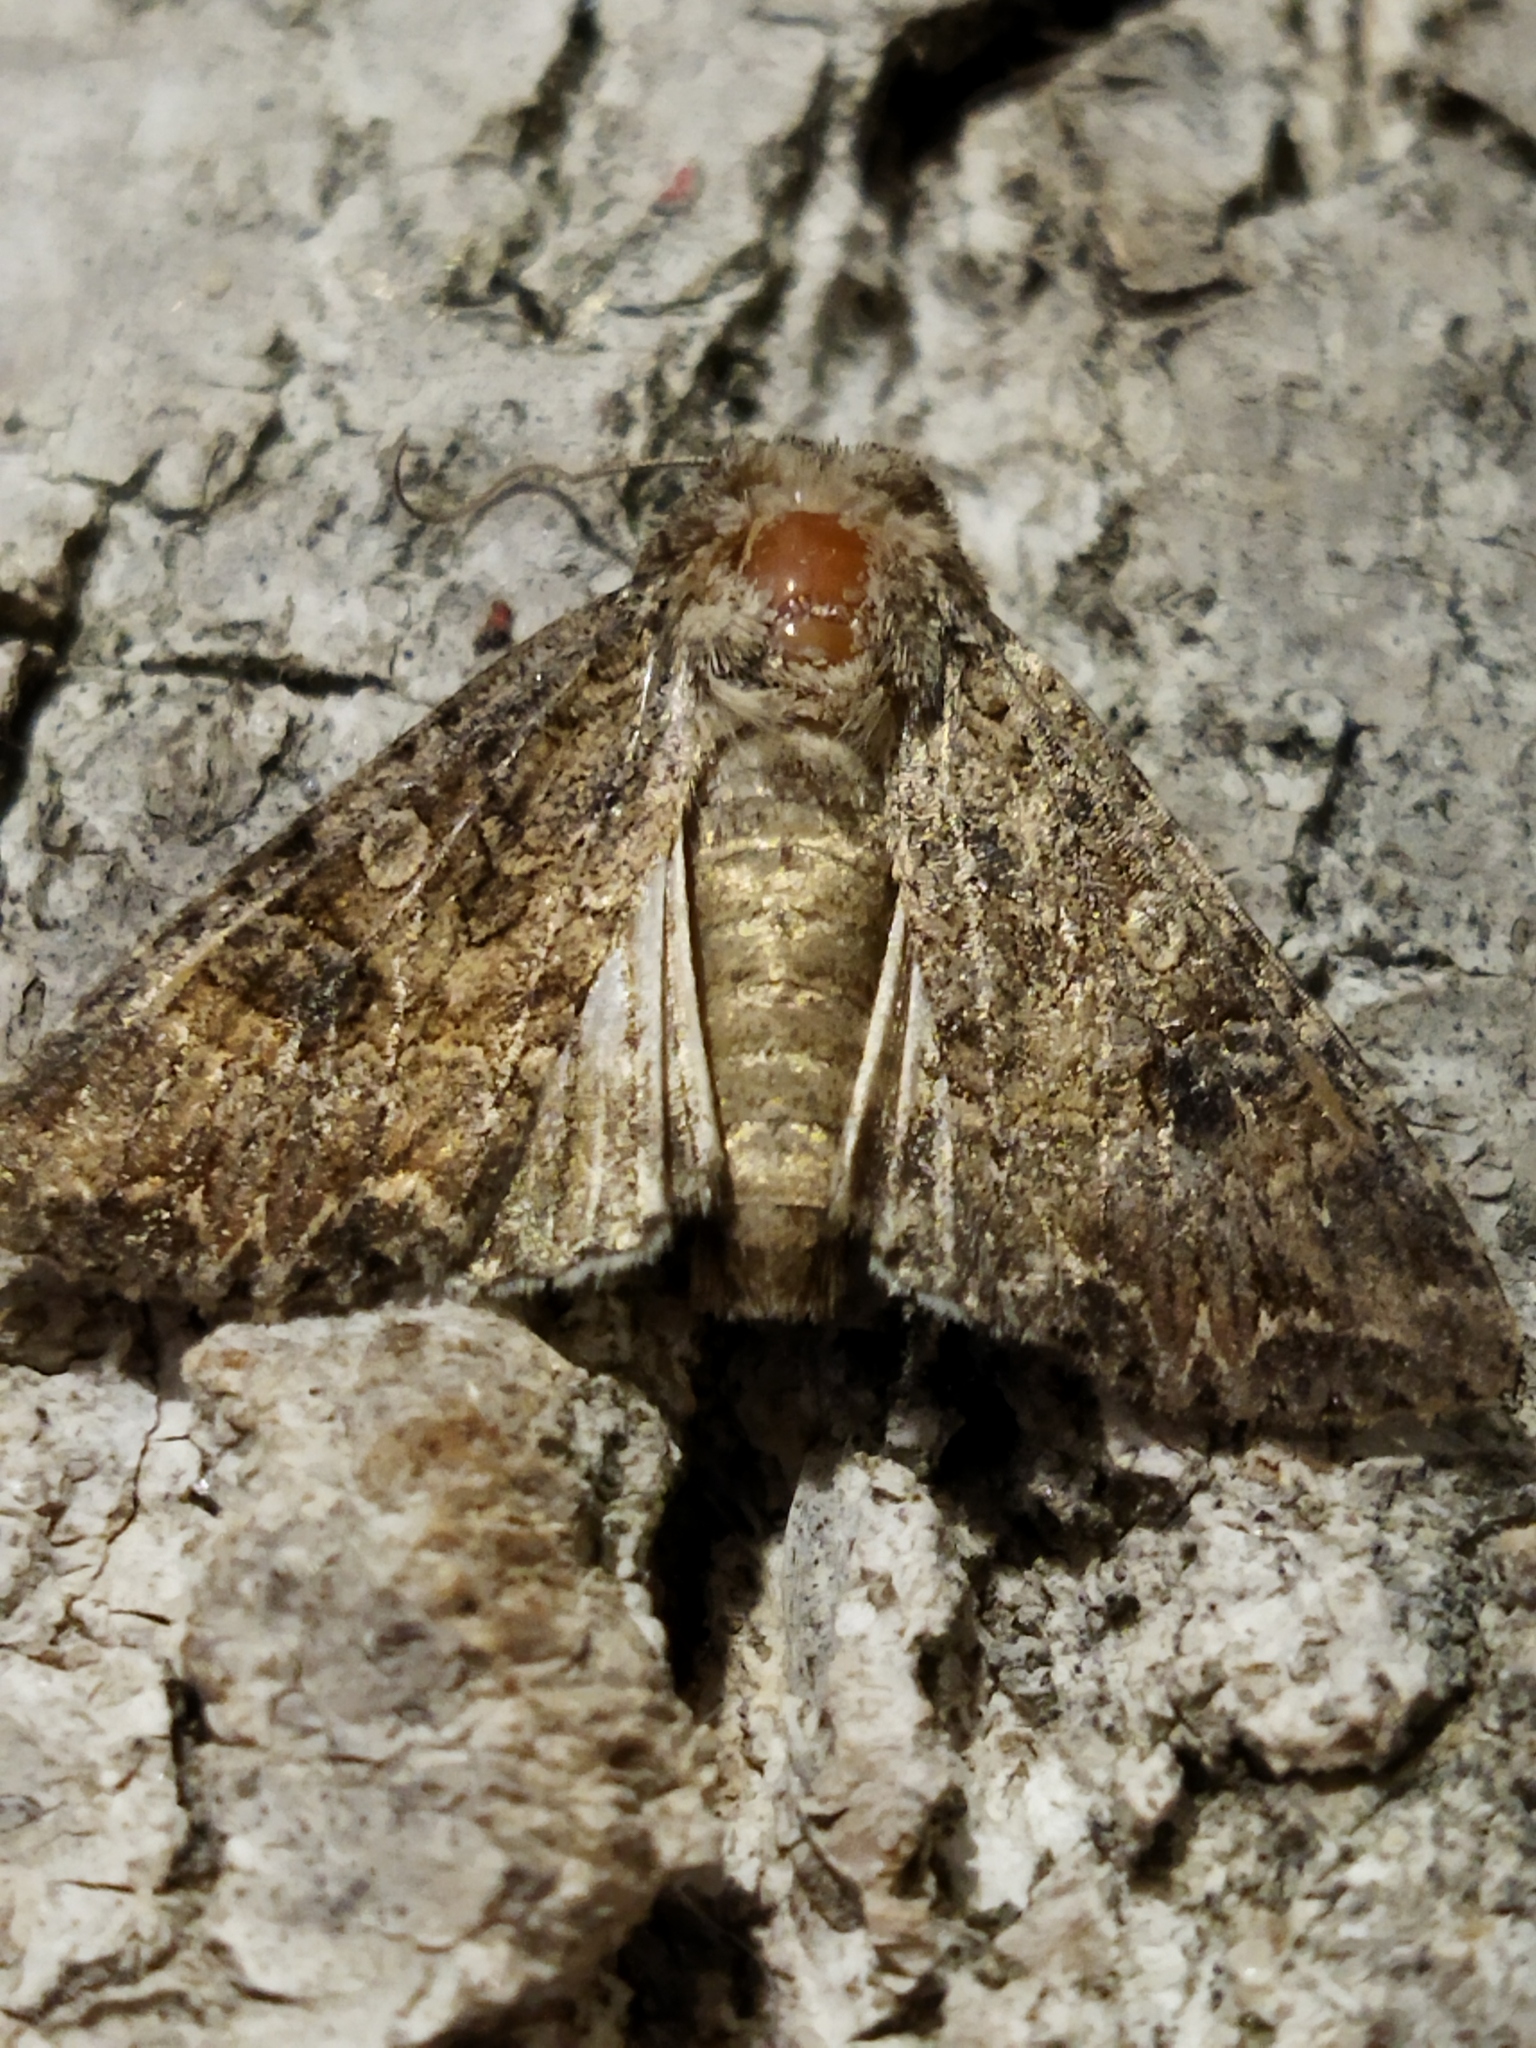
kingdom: Animalia
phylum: Arthropoda
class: Insecta
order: Lepidoptera
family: Noctuidae
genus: Anarta
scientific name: Anarta trifolii
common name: Clover cutworm moth
